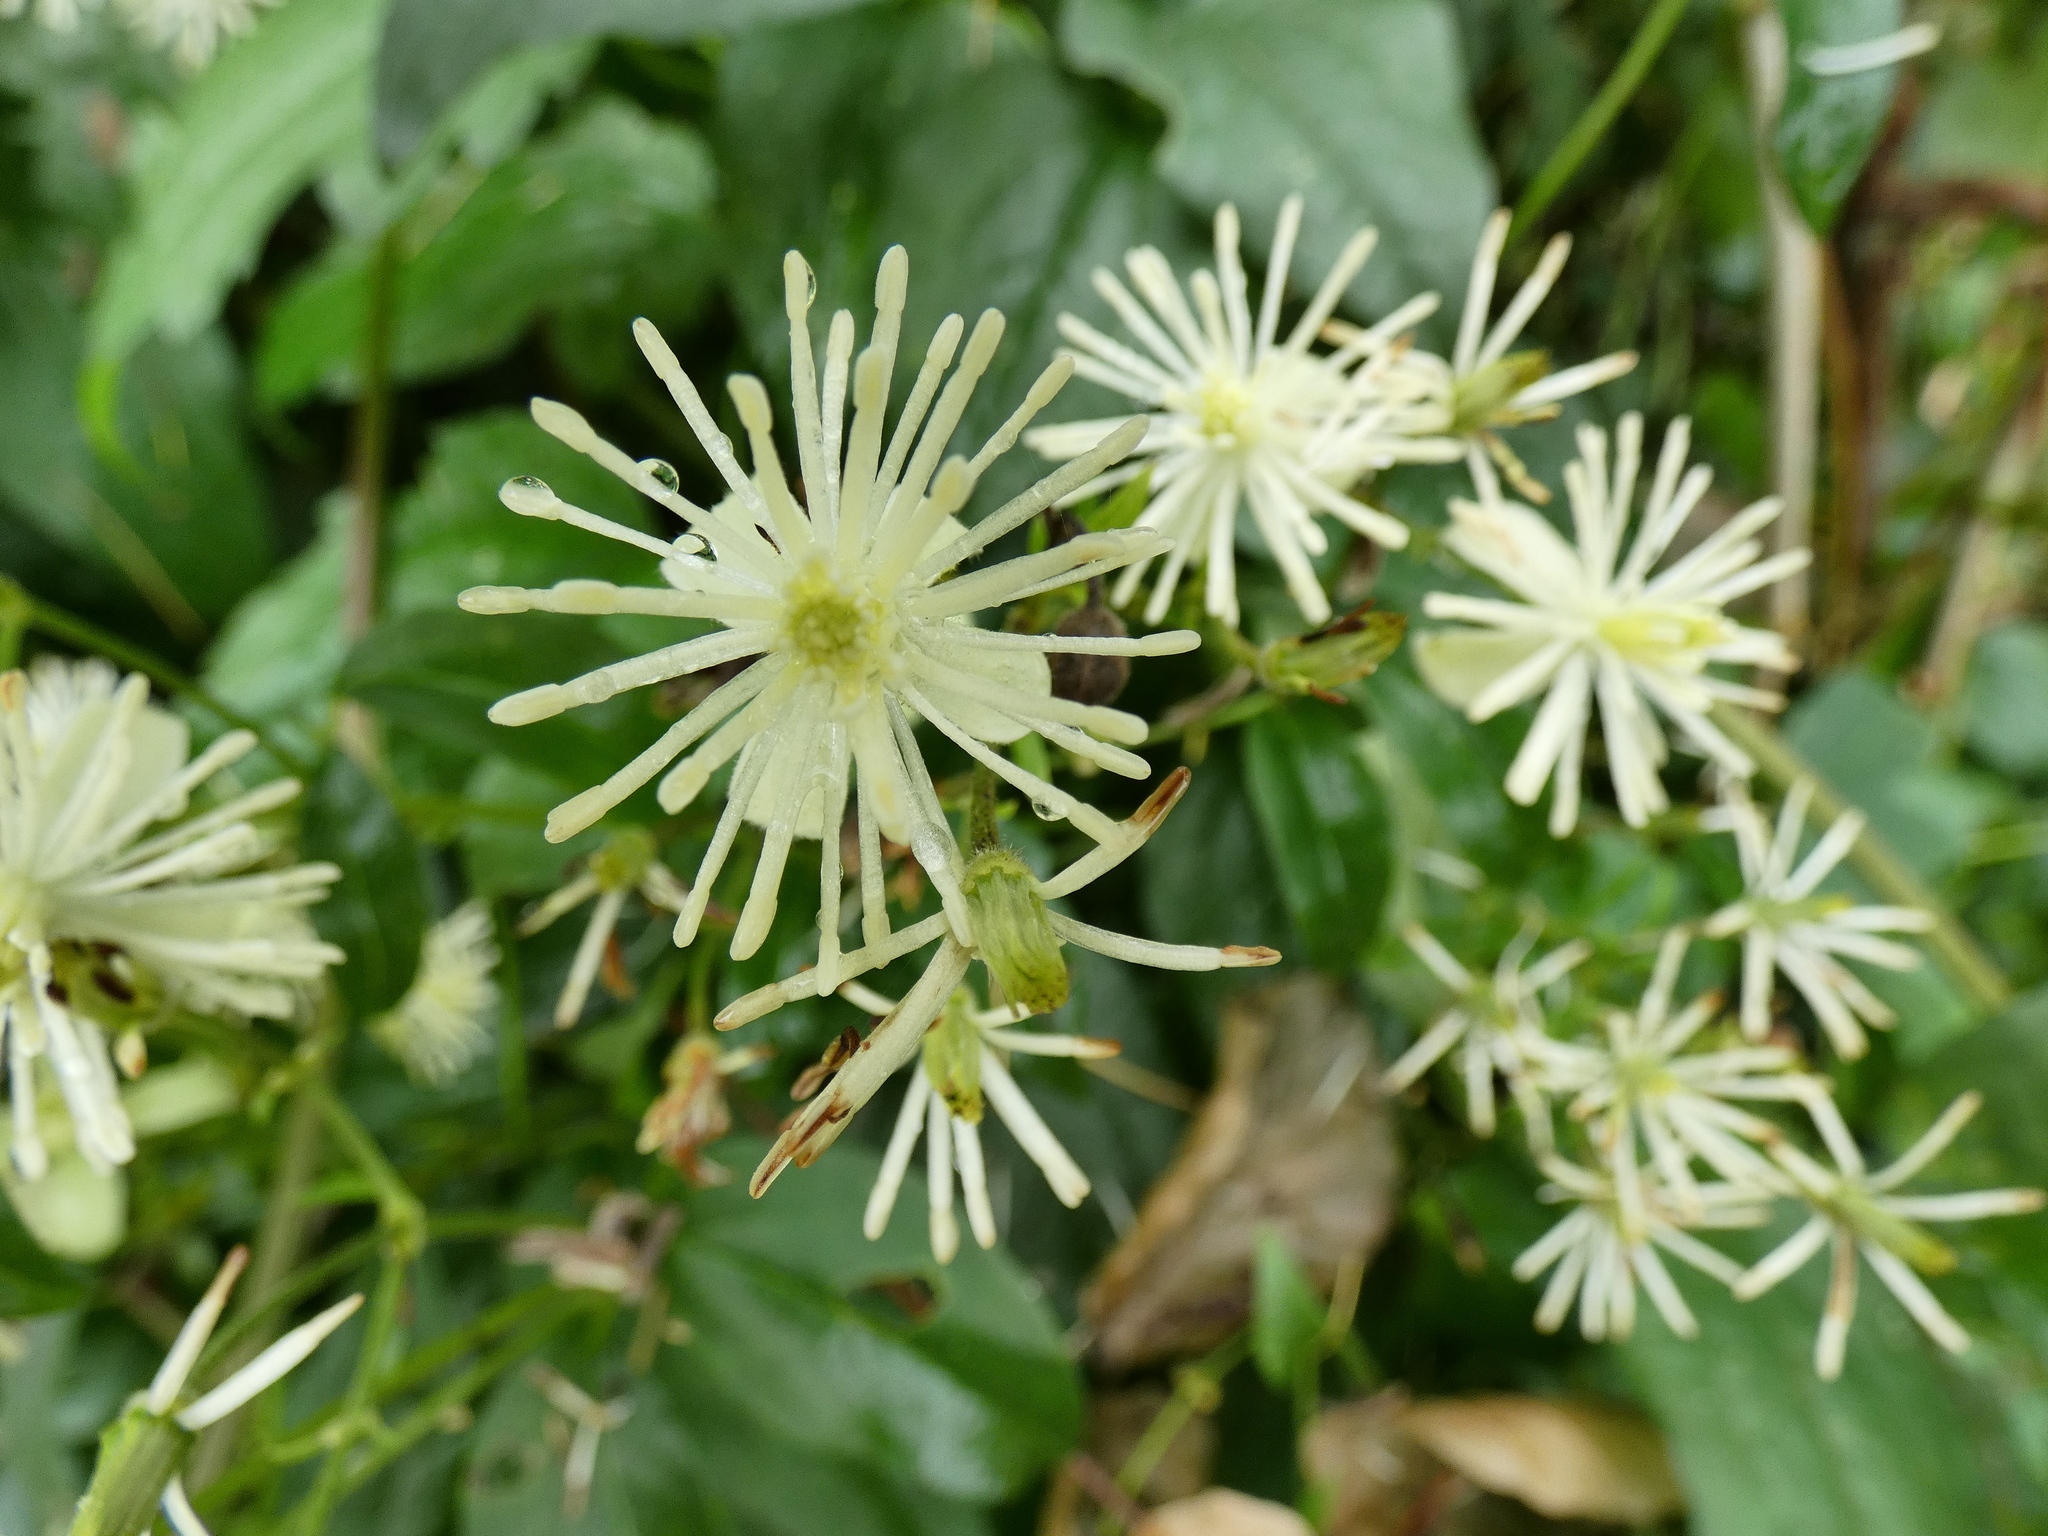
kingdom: Plantae
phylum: Tracheophyta
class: Magnoliopsida
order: Ranunculales
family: Ranunculaceae
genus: Clematis
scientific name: Clematis vitalba
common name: Evergreen clematis
